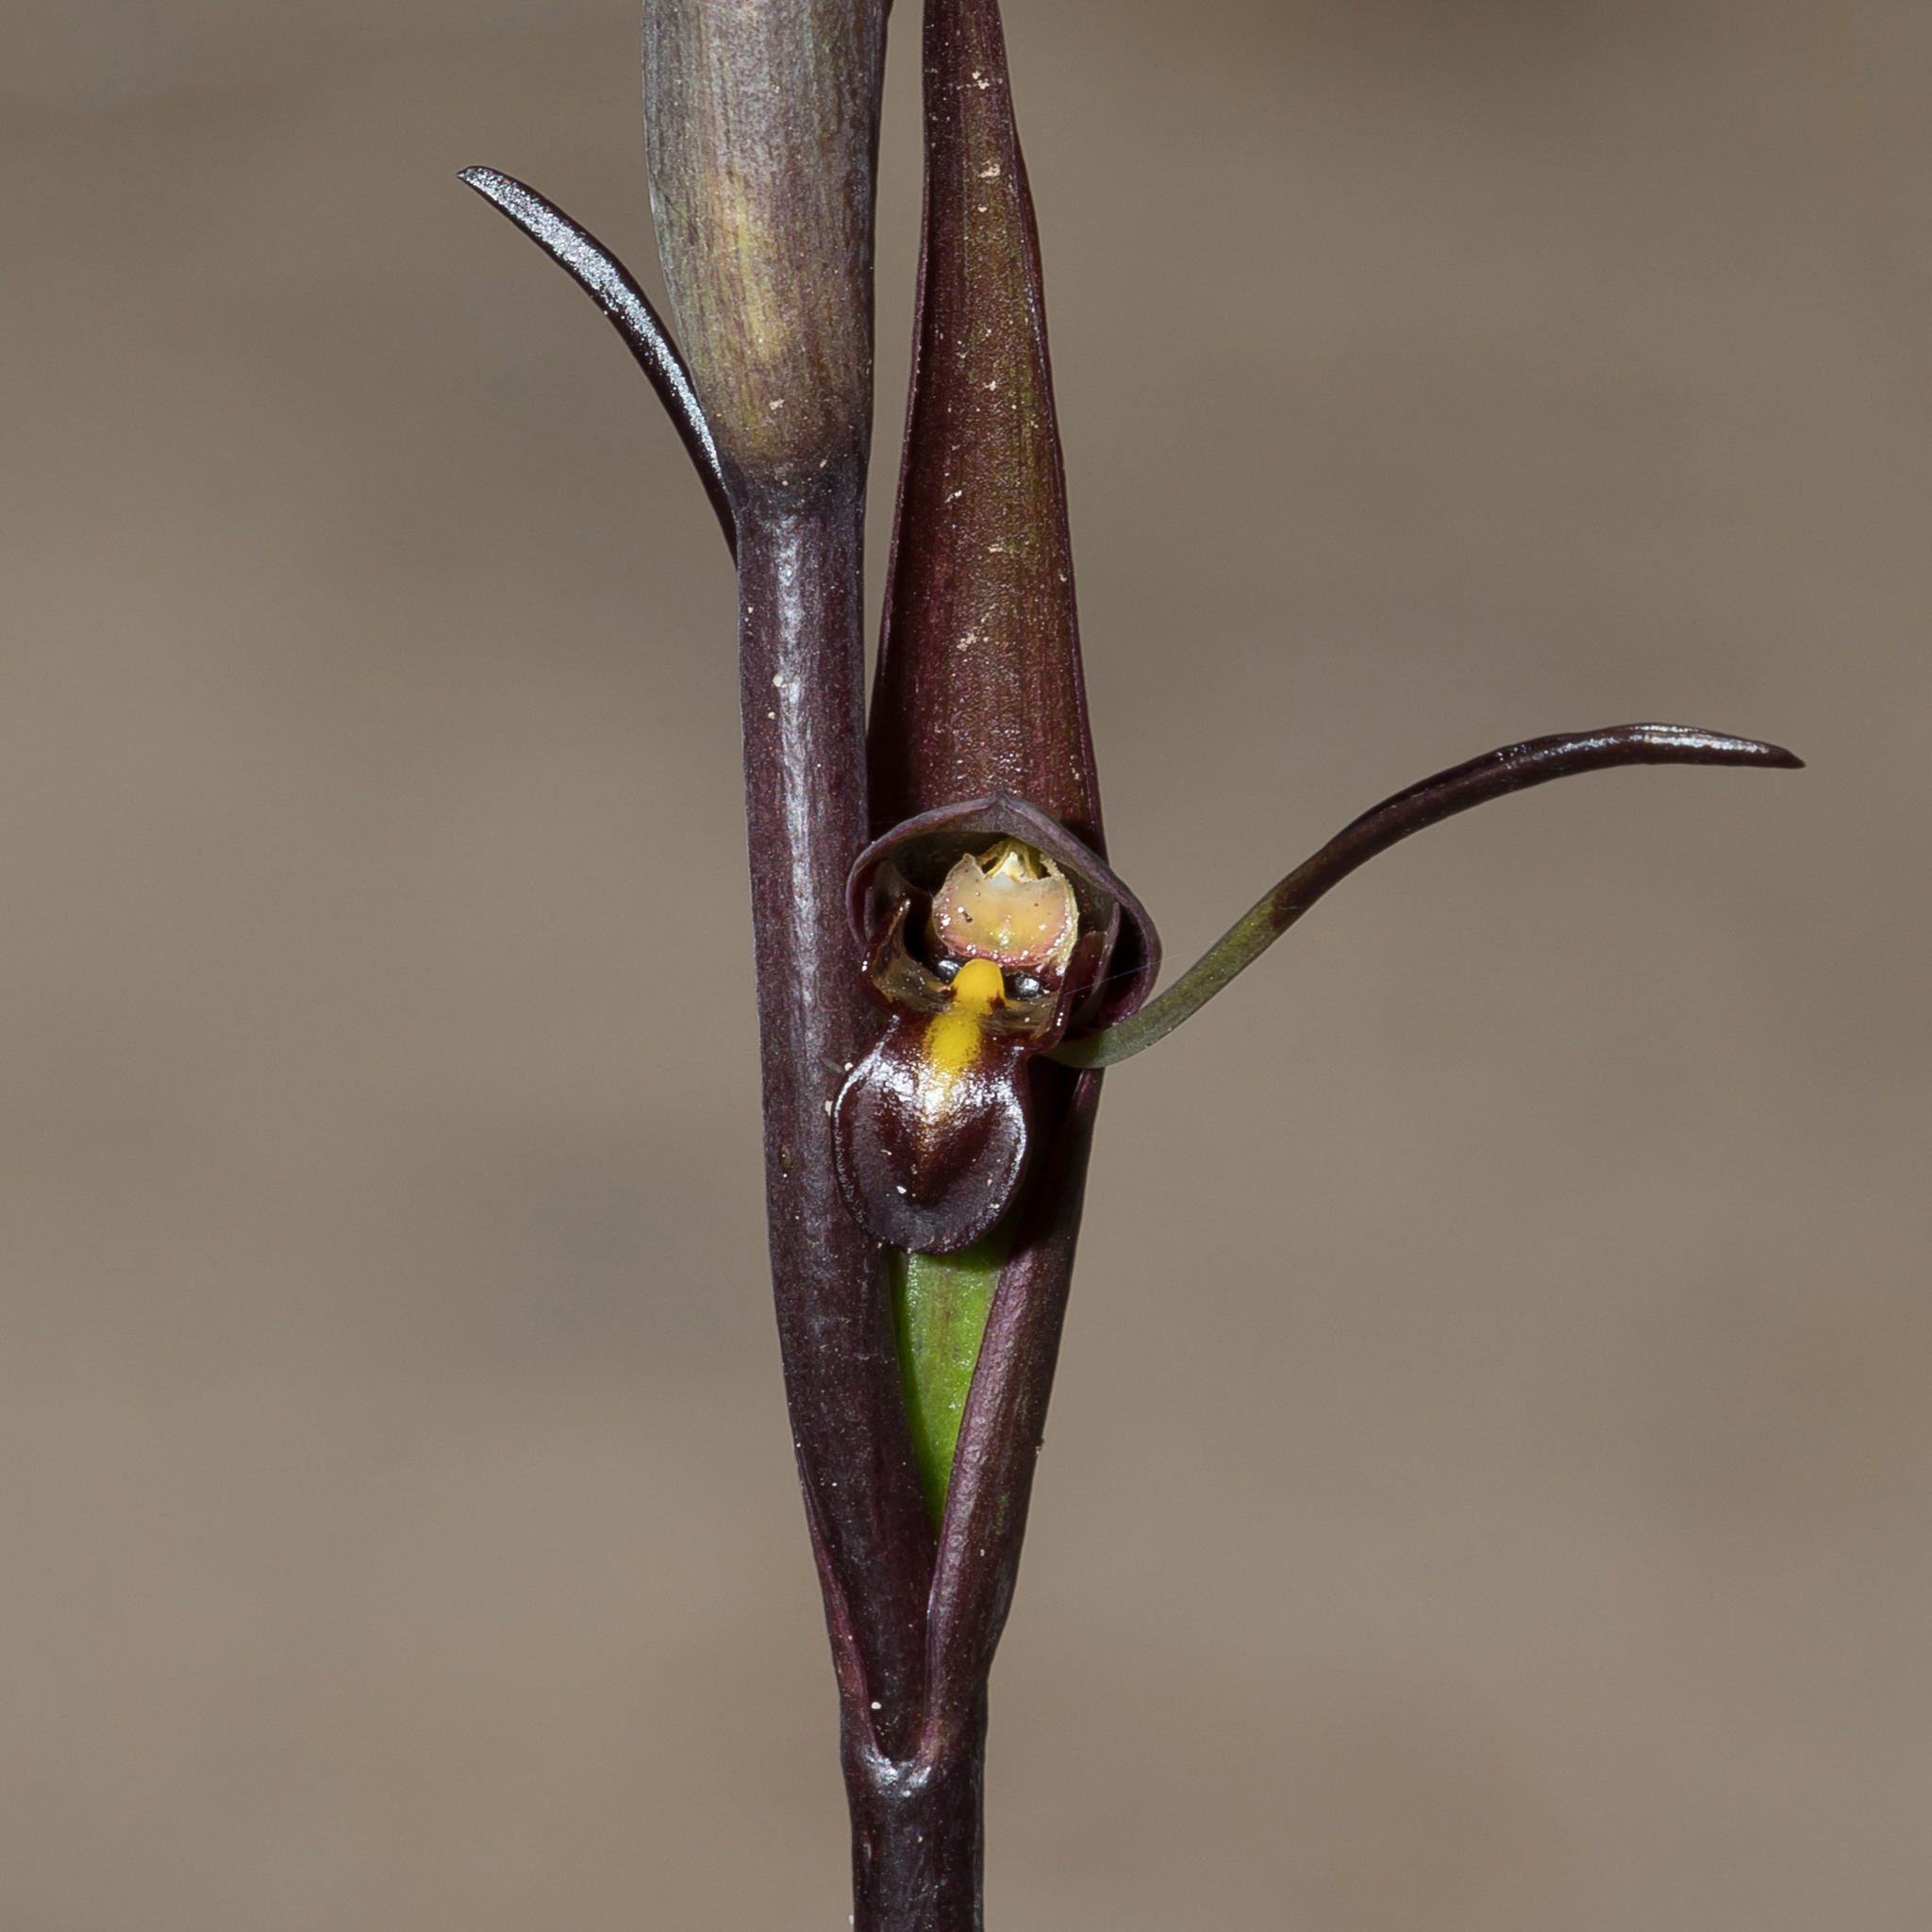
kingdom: Plantae
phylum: Tracheophyta
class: Liliopsida
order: Asparagales
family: Orchidaceae
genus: Orthoceras
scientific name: Orthoceras strictum
